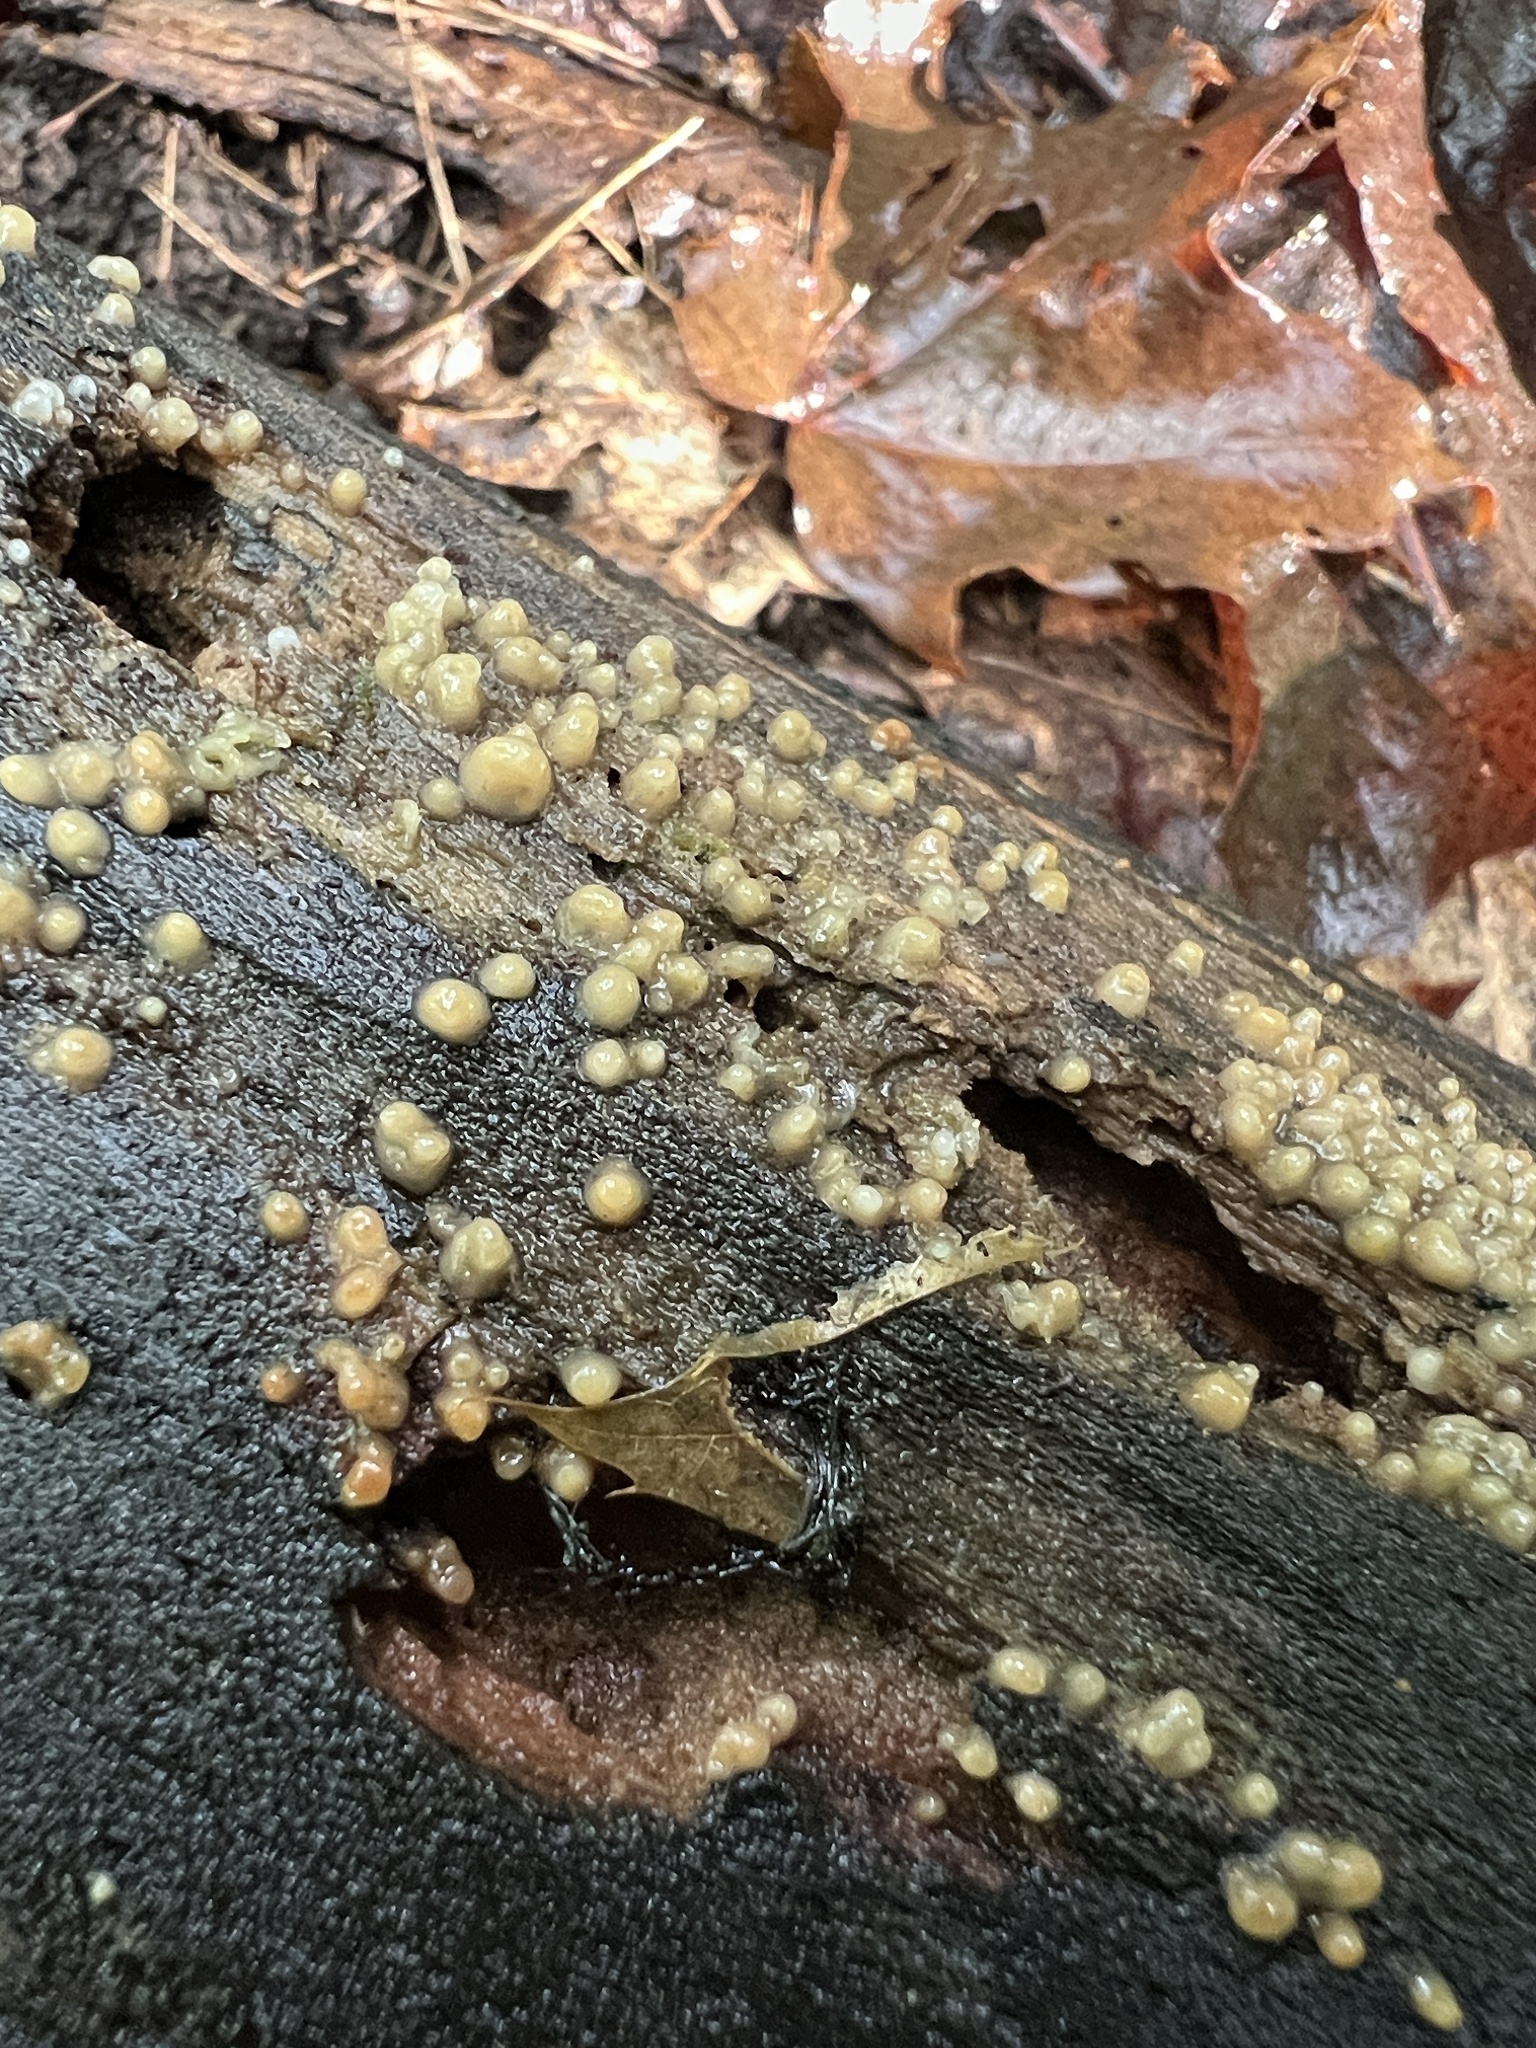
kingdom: Fungi
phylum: Basidiomycota
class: Atractiellomycetes
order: Atractiellales
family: Phleogenaceae
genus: Helicogloea
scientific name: Helicogloea compressa
